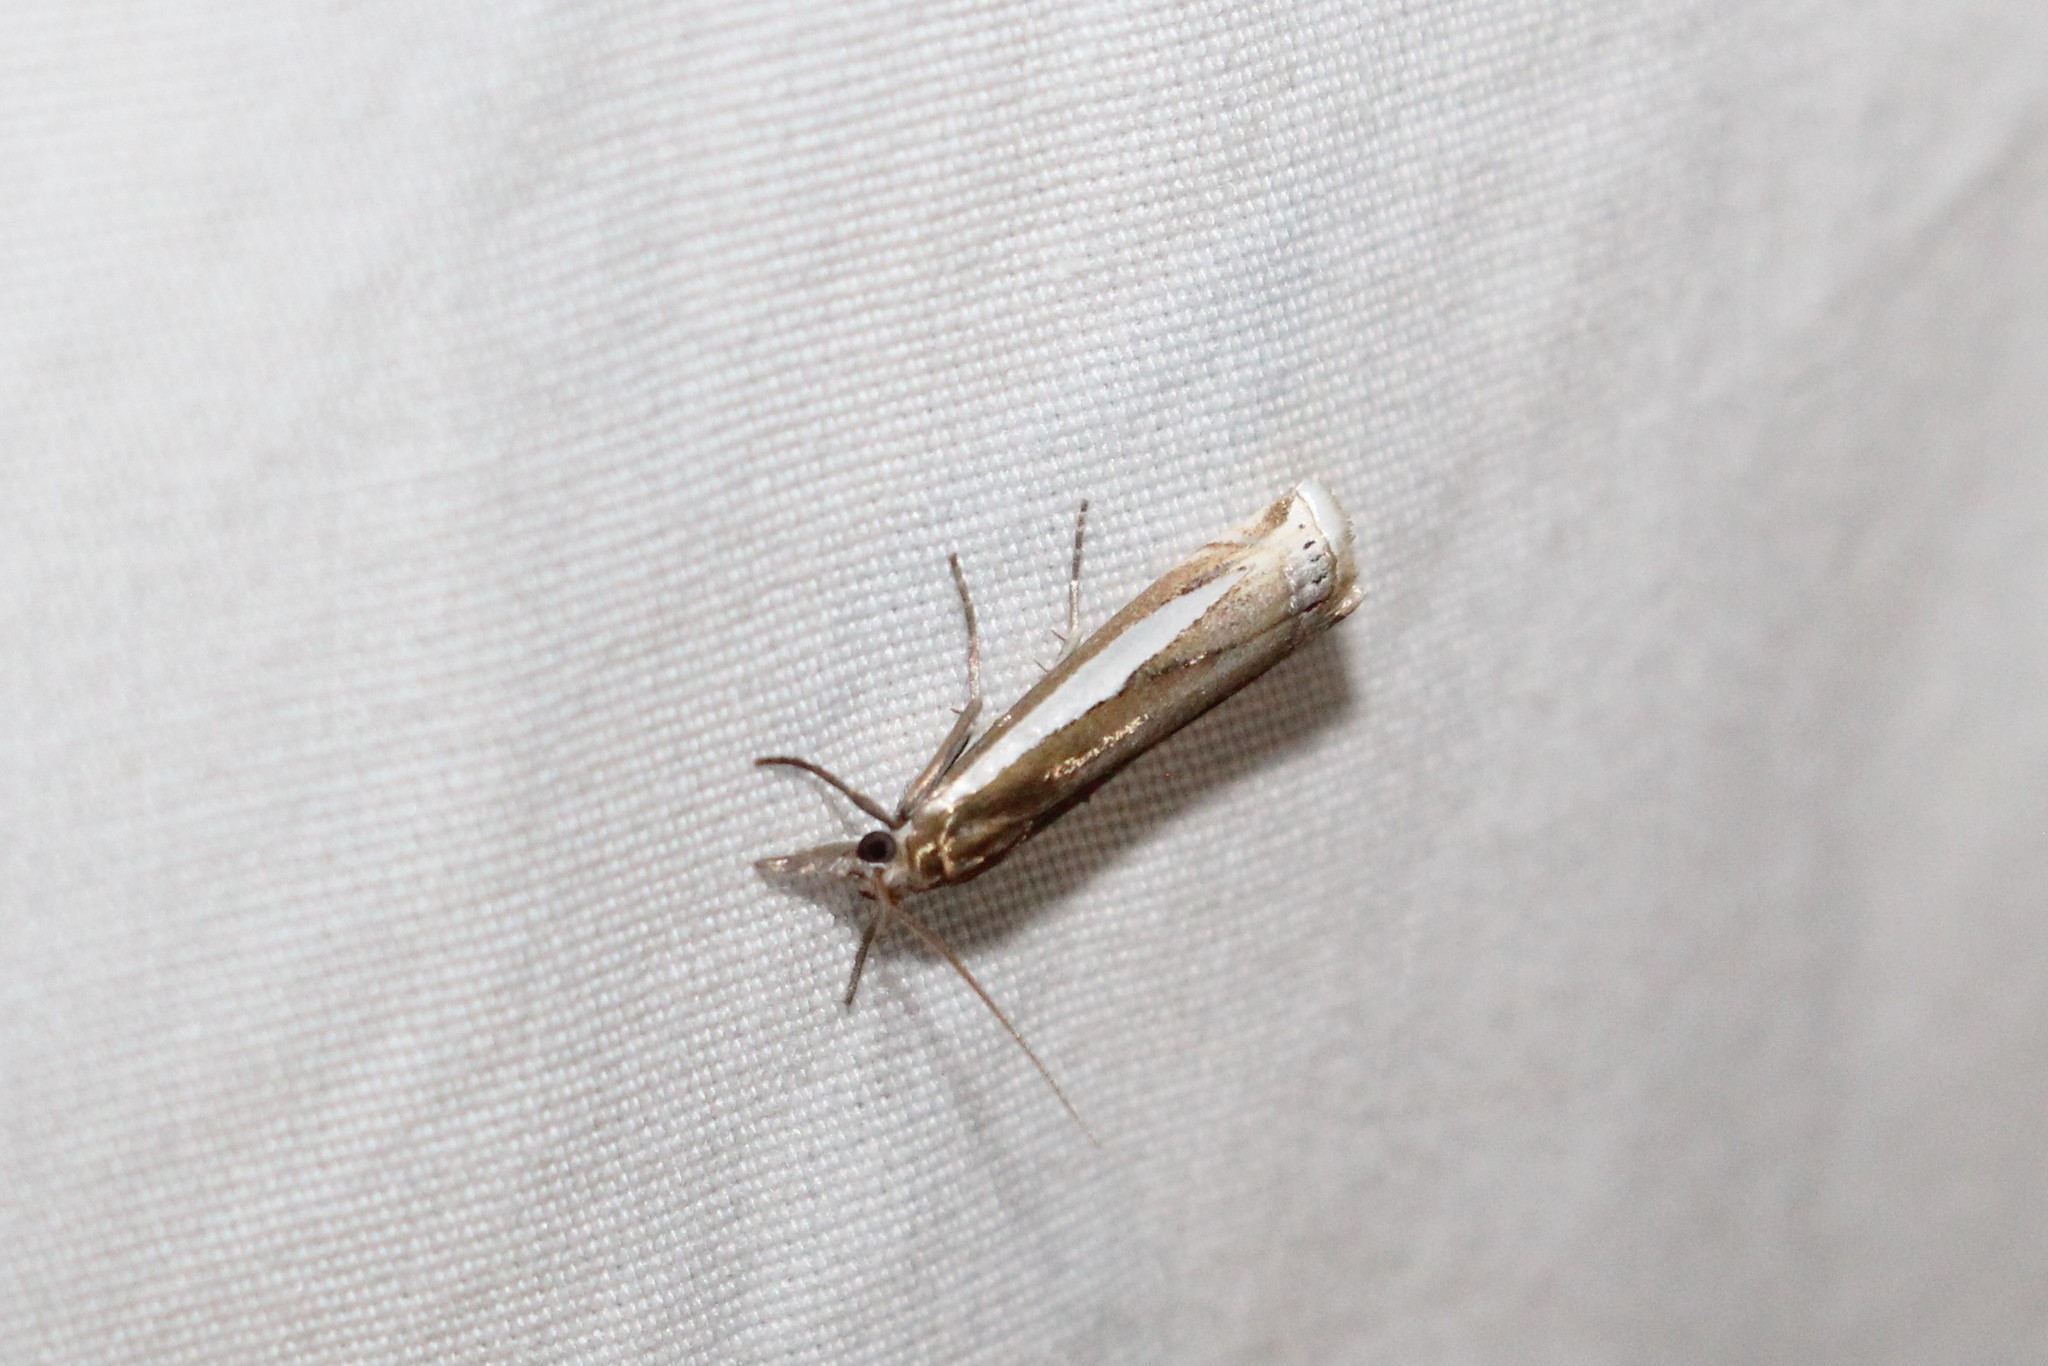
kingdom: Animalia
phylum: Arthropoda
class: Insecta
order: Lepidoptera
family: Crambidae
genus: Crambus
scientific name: Crambus praefectellus
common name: Common grass-veneer
